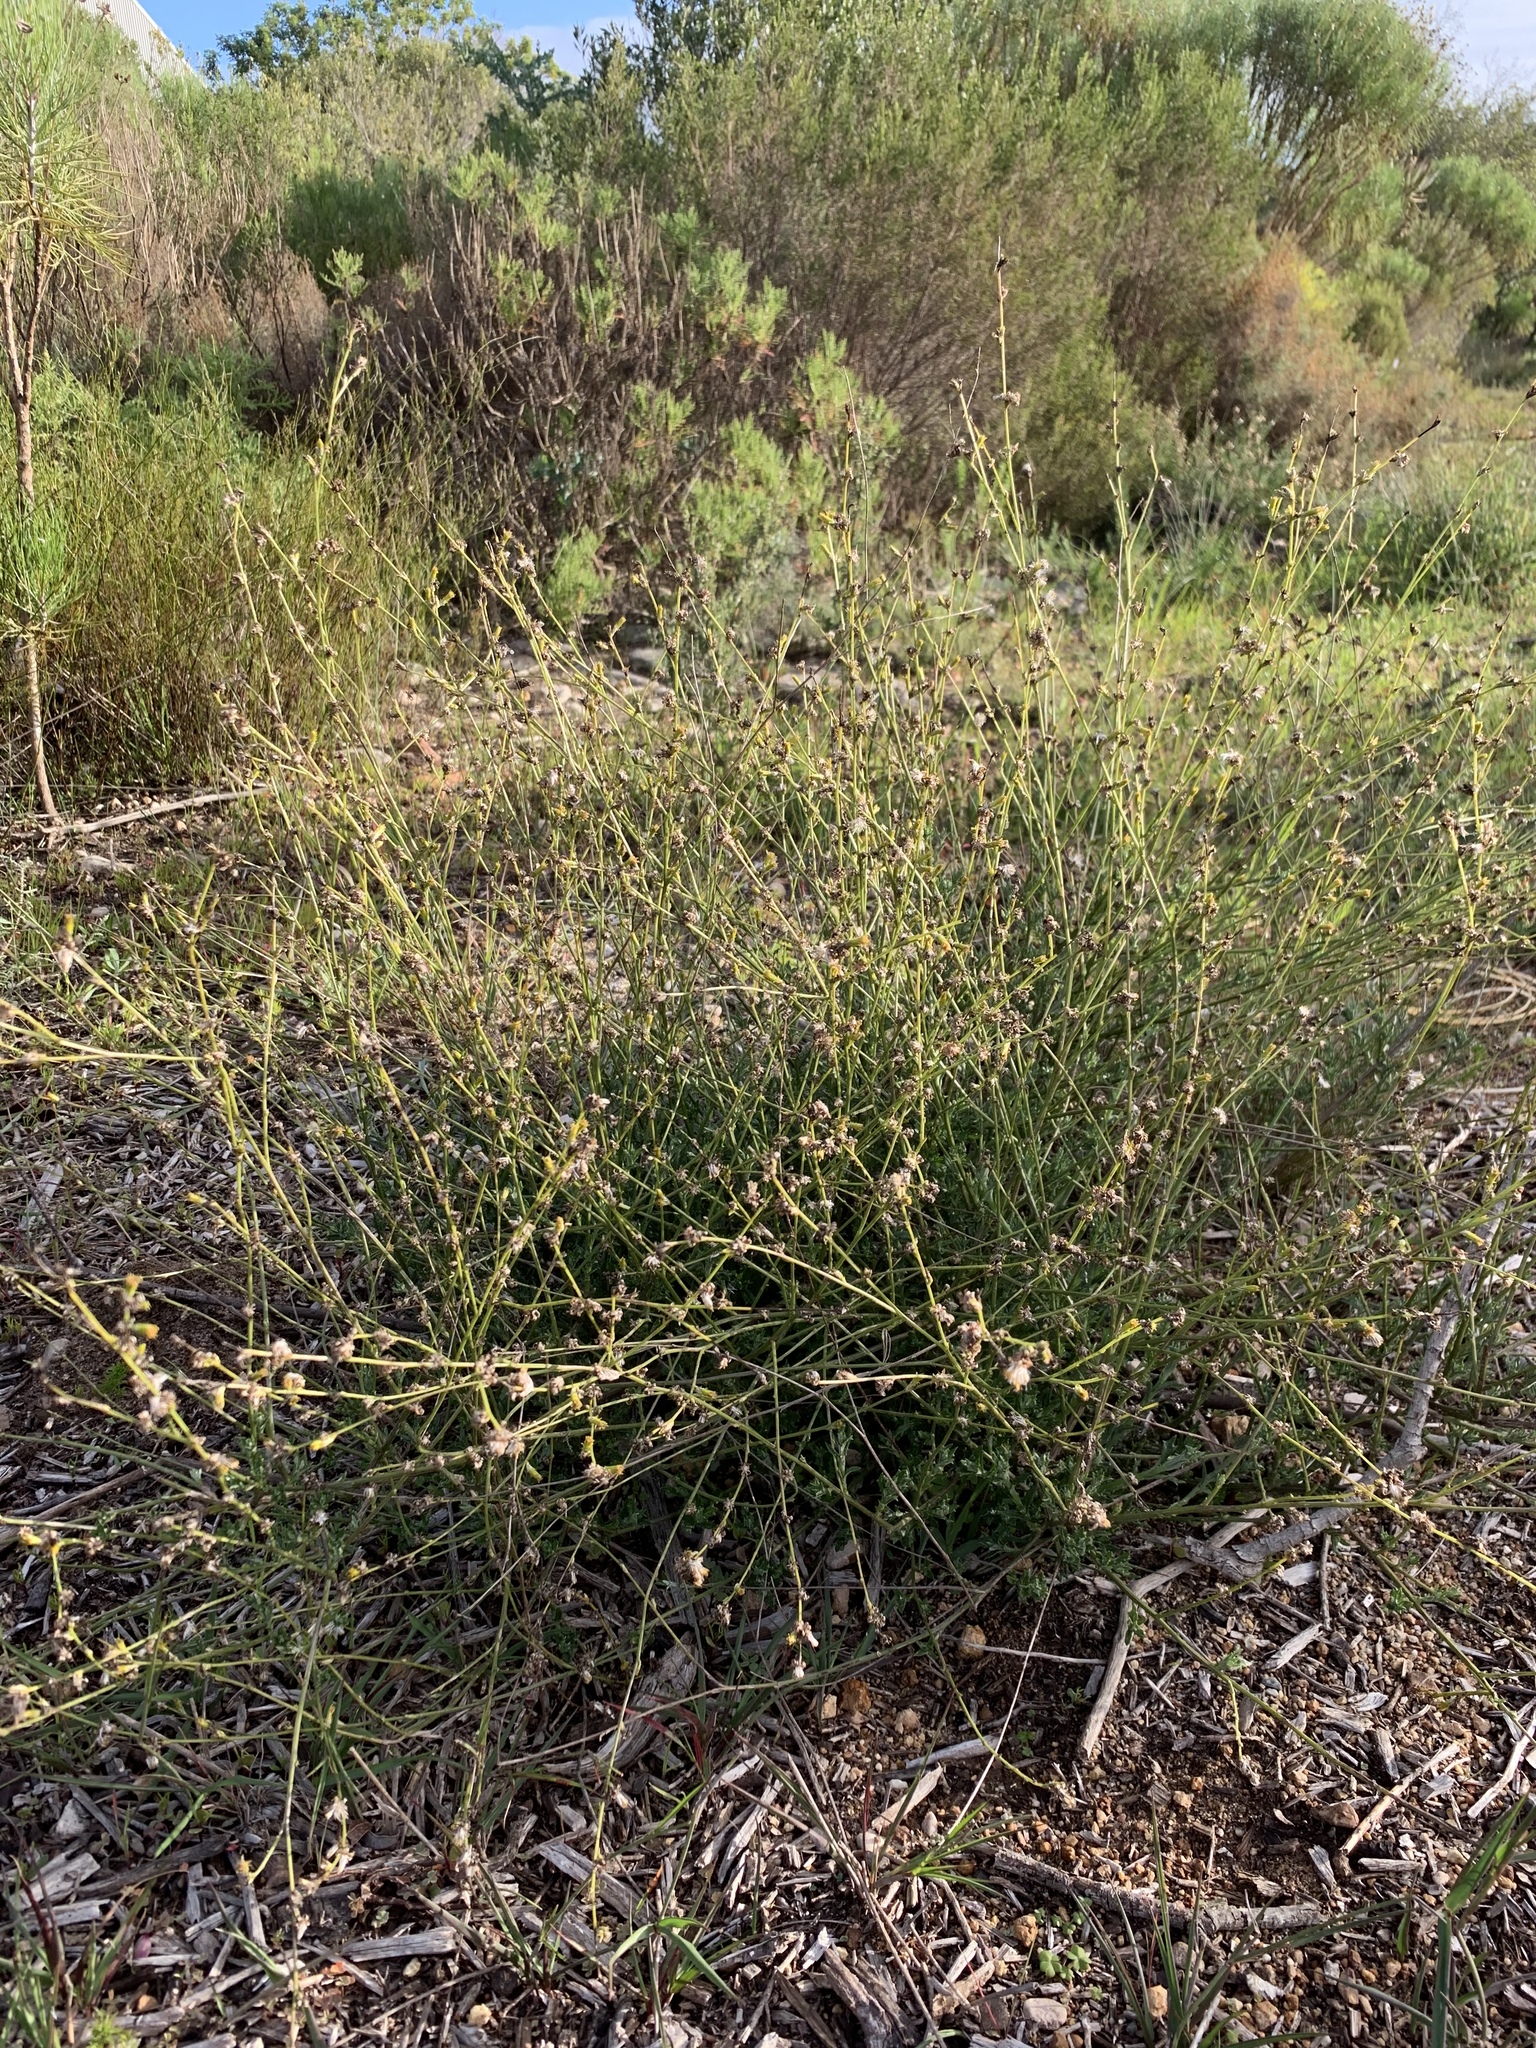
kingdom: Plantae
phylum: Tracheophyta
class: Magnoliopsida
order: Asterales
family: Asteraceae
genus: Senecio
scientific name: Senecio pubigerus
